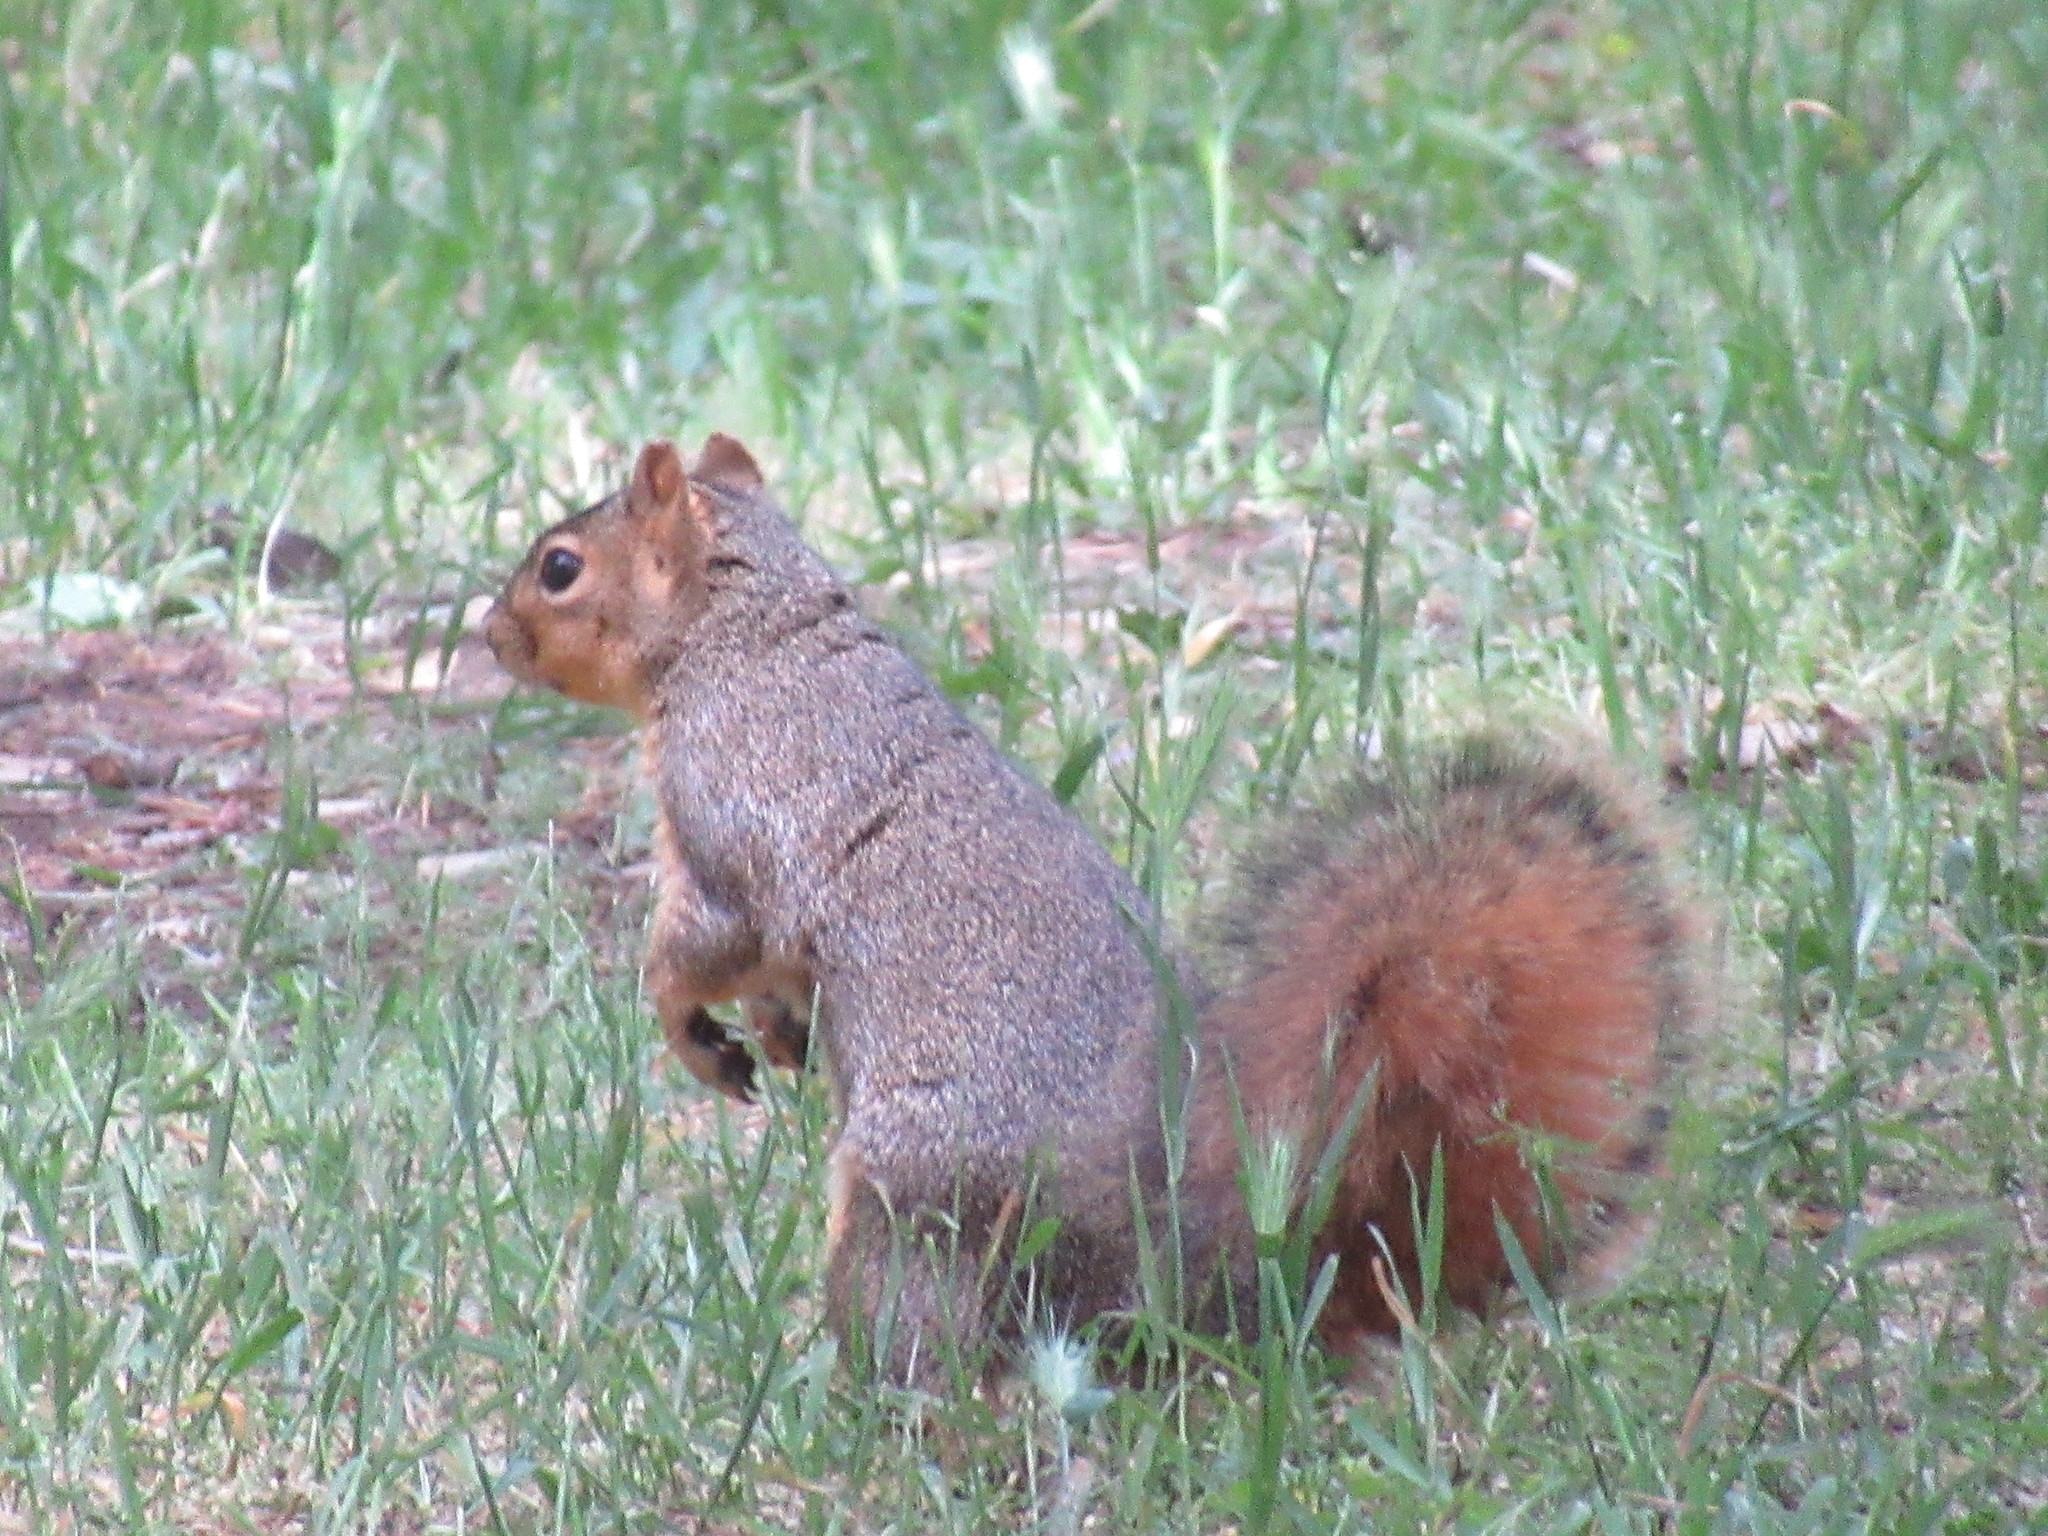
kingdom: Animalia
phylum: Chordata
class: Mammalia
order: Rodentia
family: Sciuridae
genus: Sciurus
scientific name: Sciurus niger
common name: Fox squirrel
